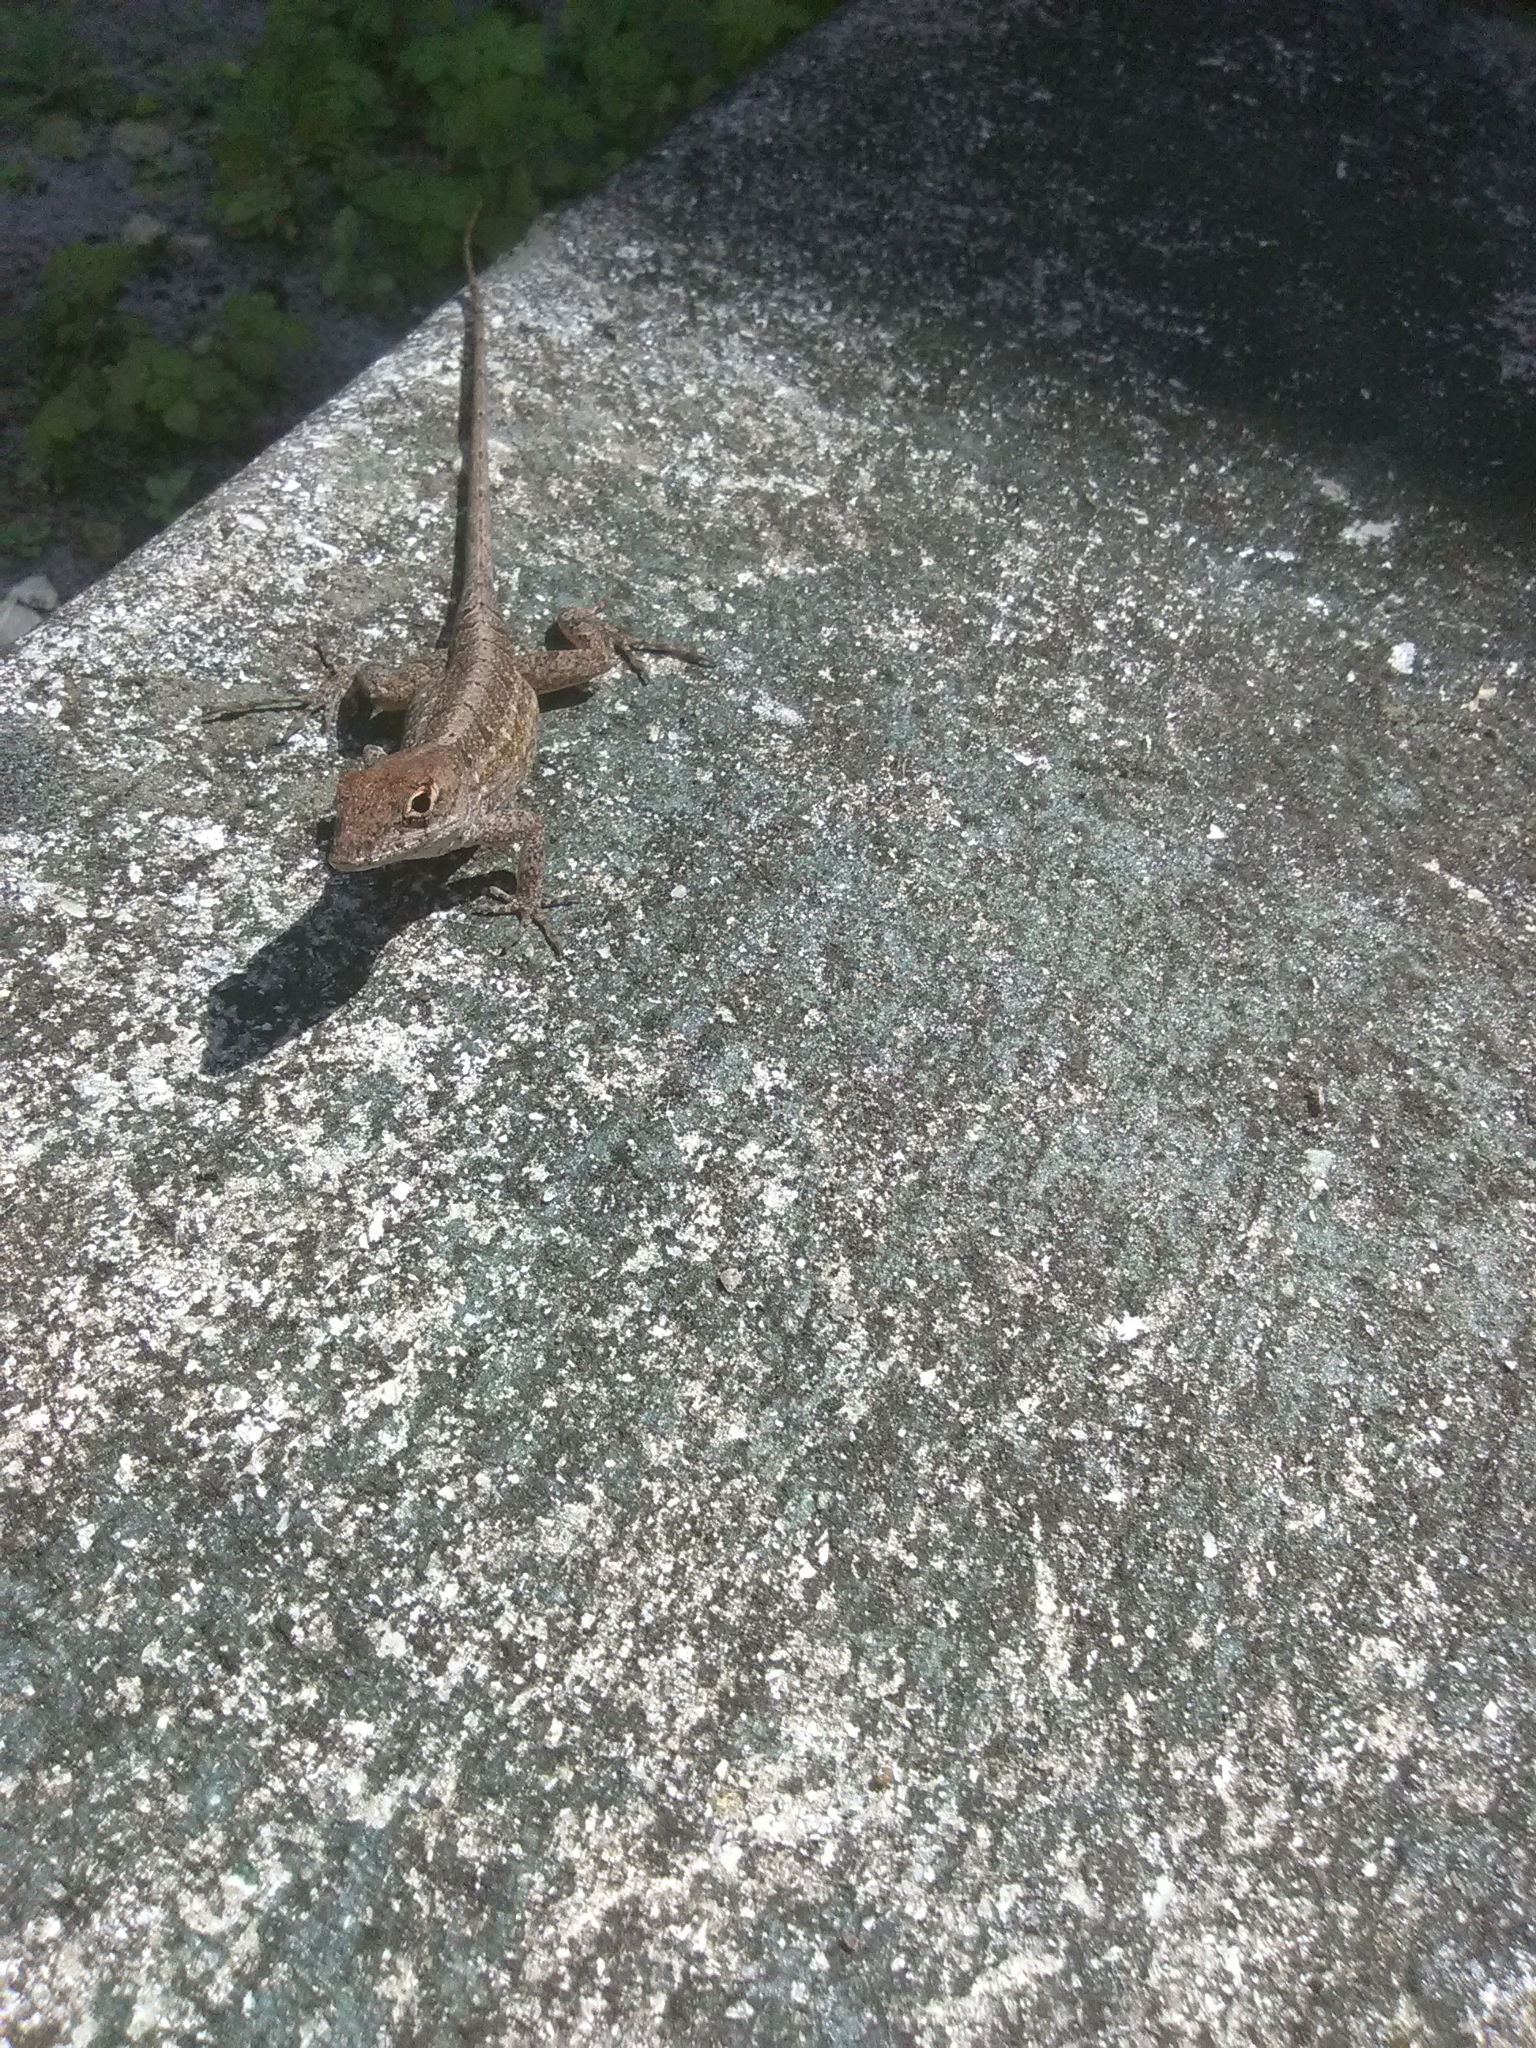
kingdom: Animalia
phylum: Chordata
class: Squamata
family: Dactyloidae
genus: Anolis
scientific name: Anolis sagrei
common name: Brown anole
